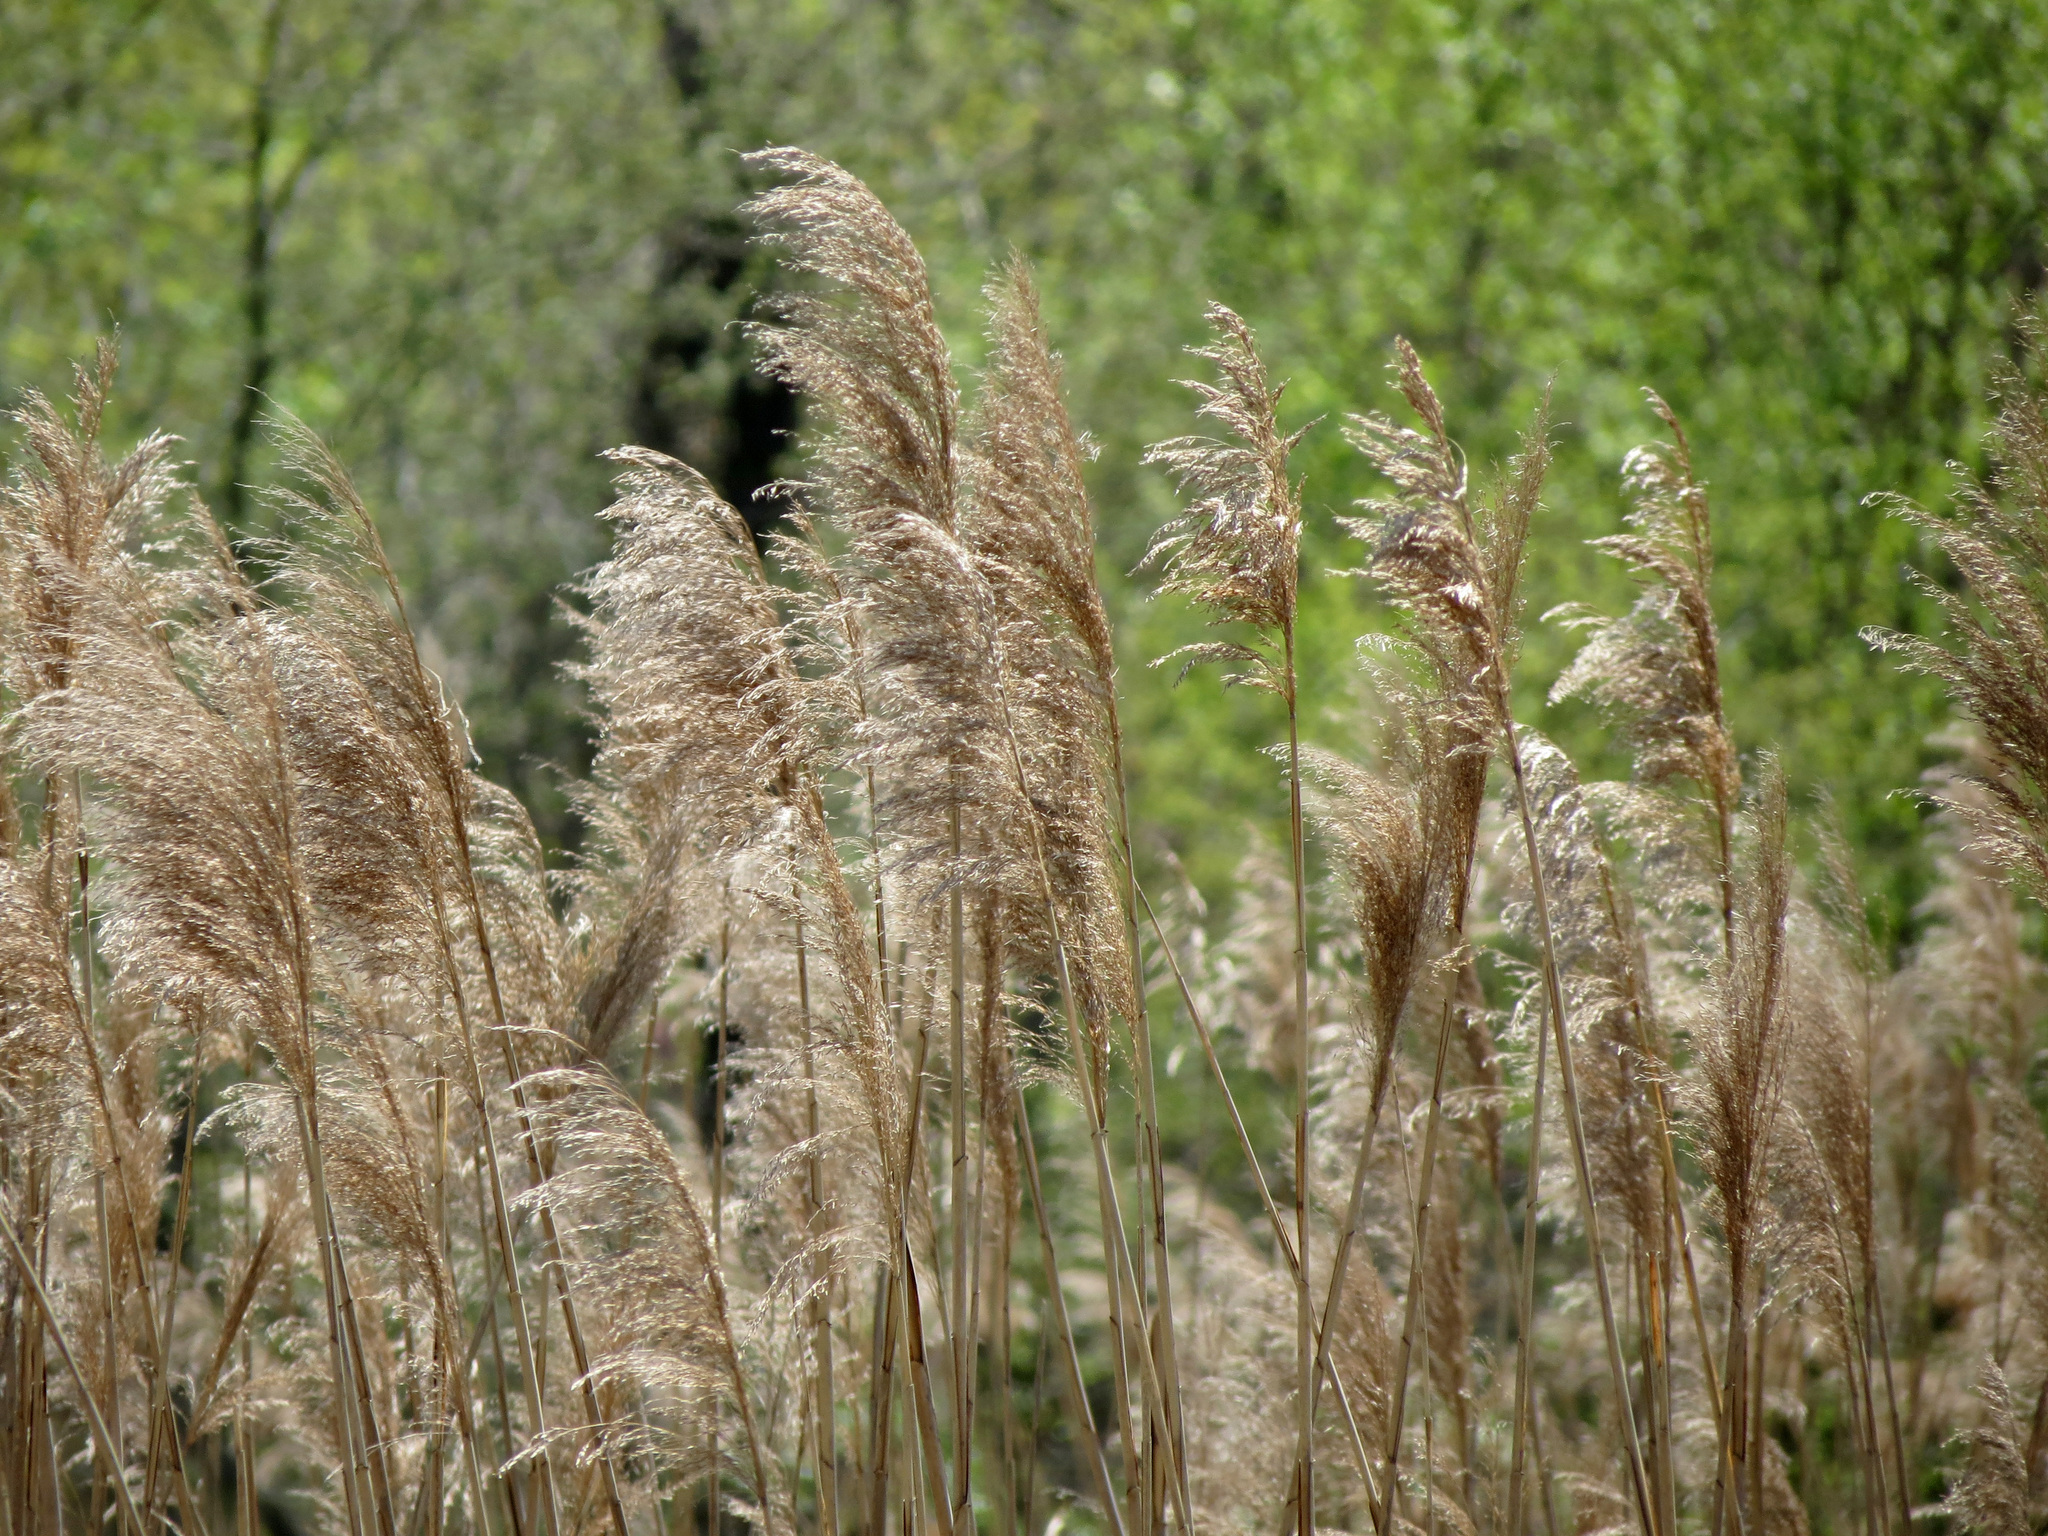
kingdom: Plantae
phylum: Tracheophyta
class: Liliopsida
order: Poales
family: Poaceae
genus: Phragmites
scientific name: Phragmites australis
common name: Common reed
